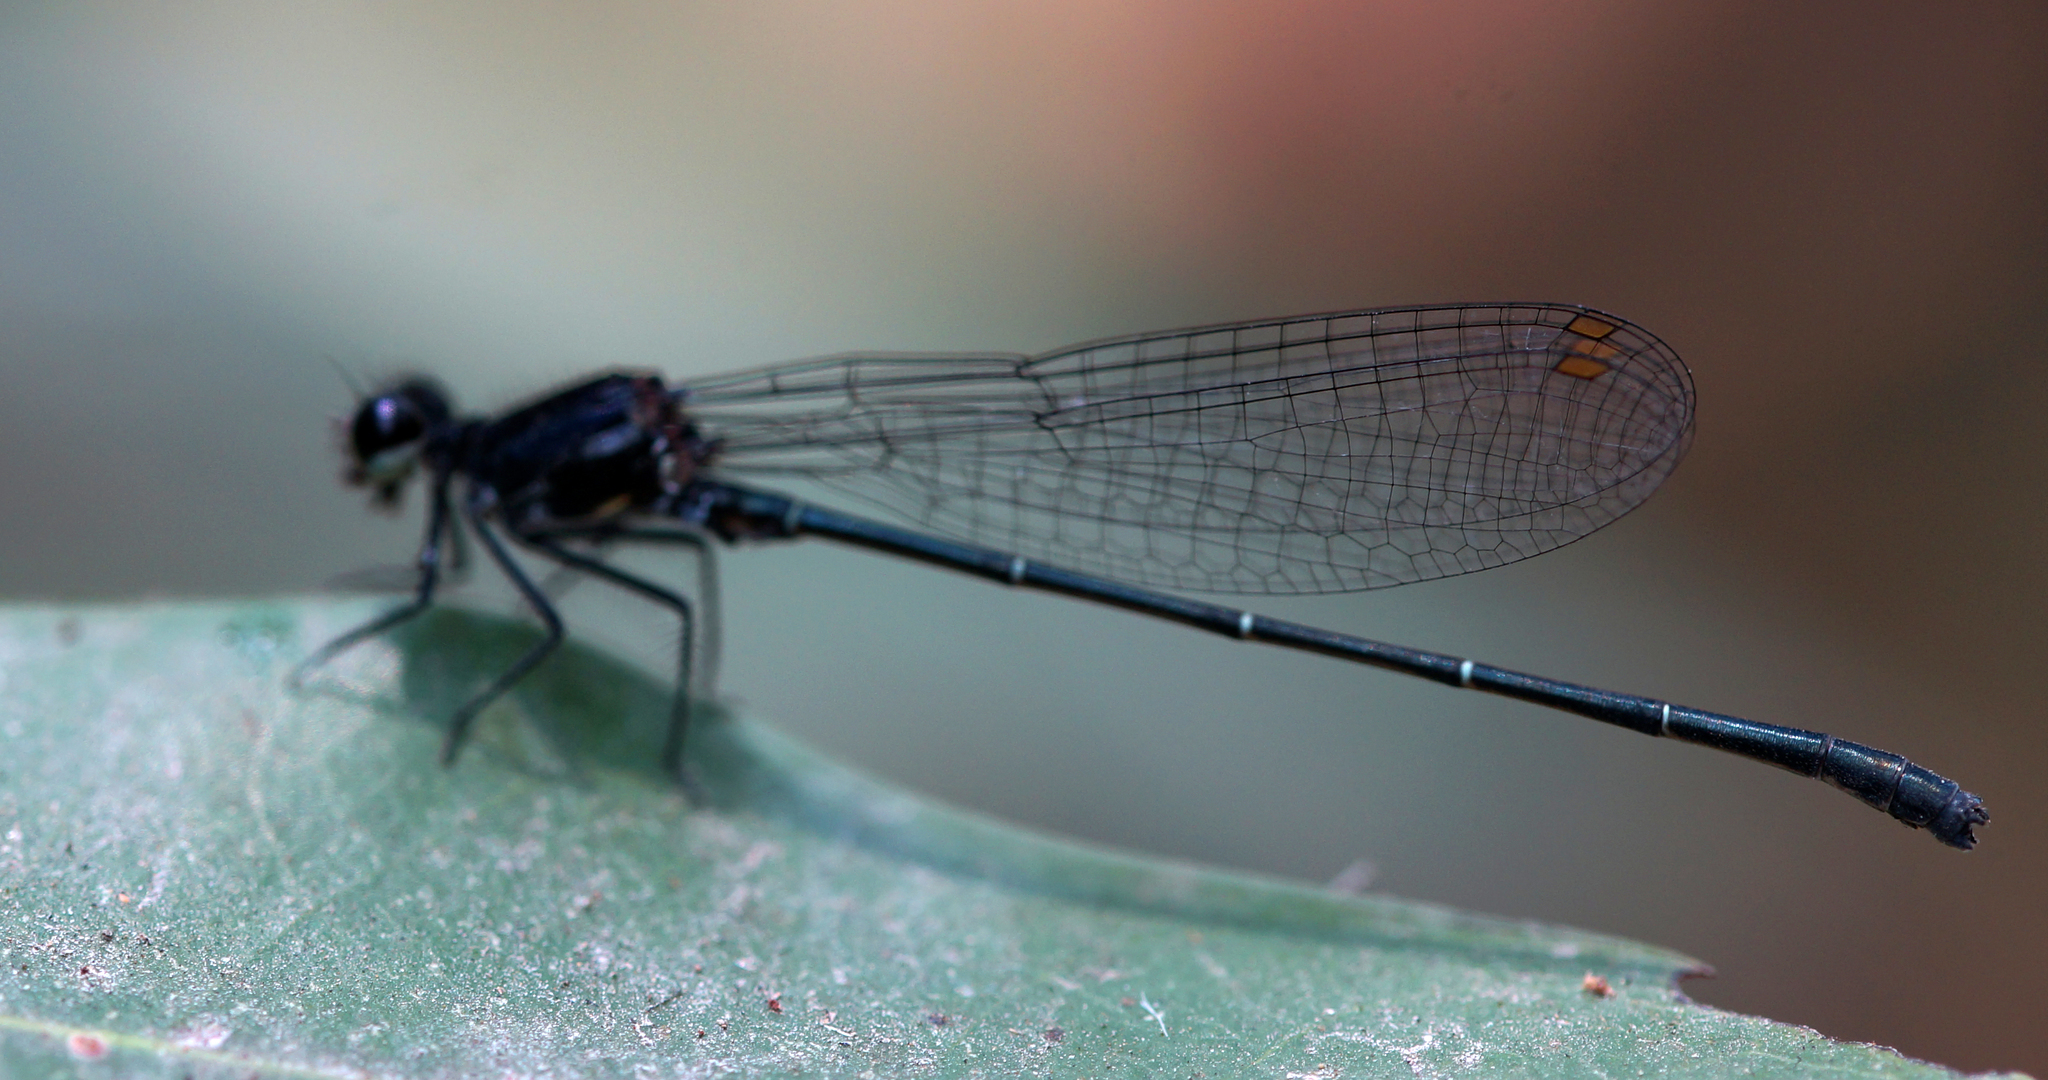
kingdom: Animalia
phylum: Arthropoda
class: Insecta
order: Odonata
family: Platycnemididae
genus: Onychargia
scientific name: Onychargia atrocyana
